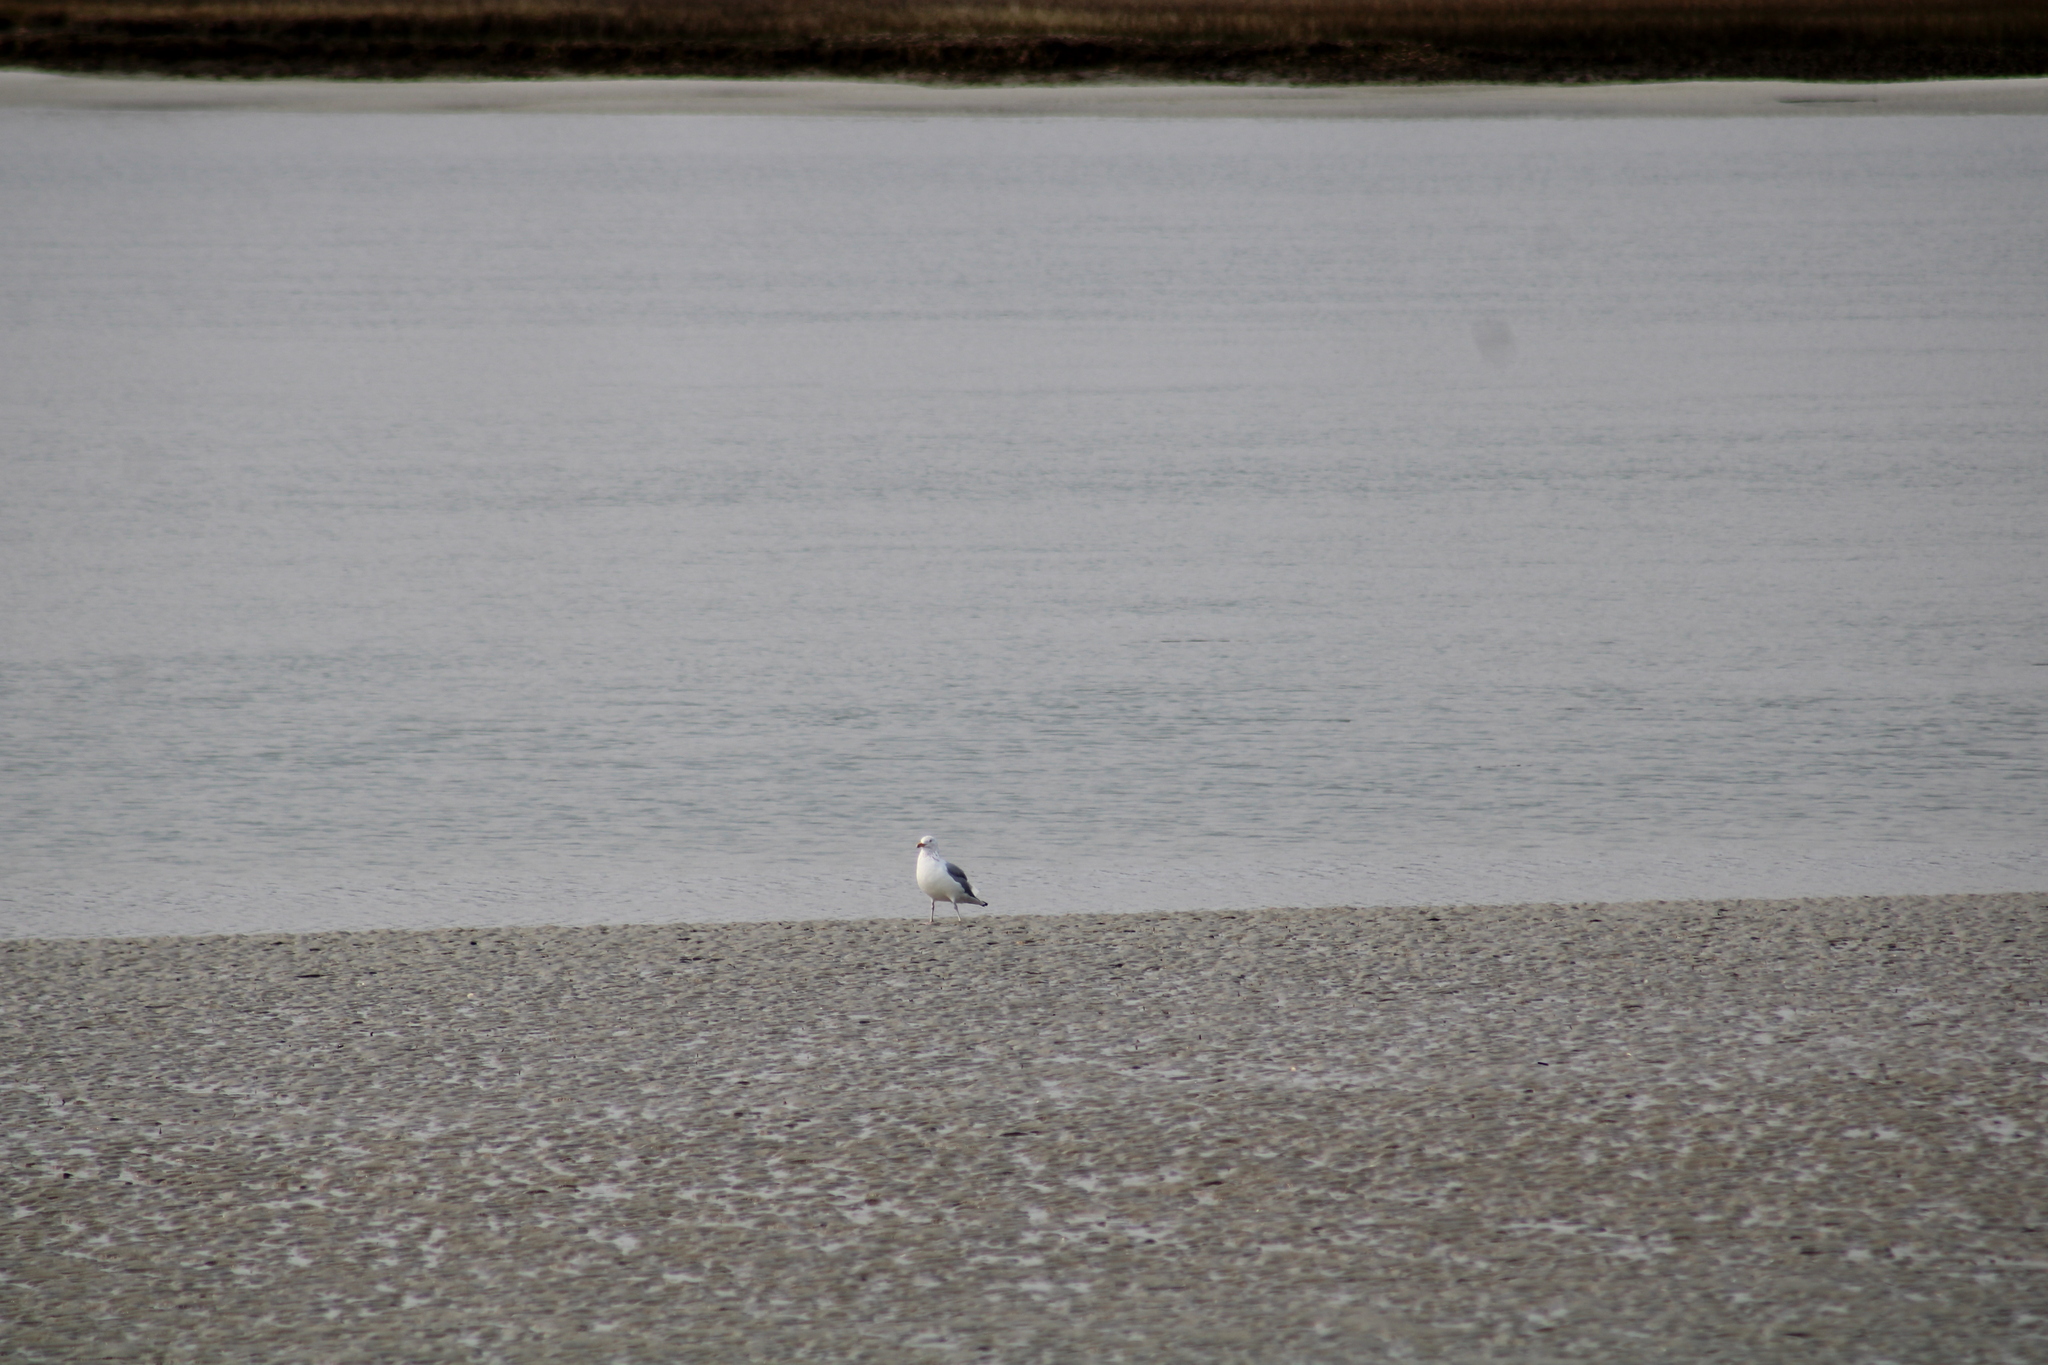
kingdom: Animalia
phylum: Chordata
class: Aves
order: Charadriiformes
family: Laridae
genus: Leucophaeus
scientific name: Leucophaeus atricilla
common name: Laughing gull
